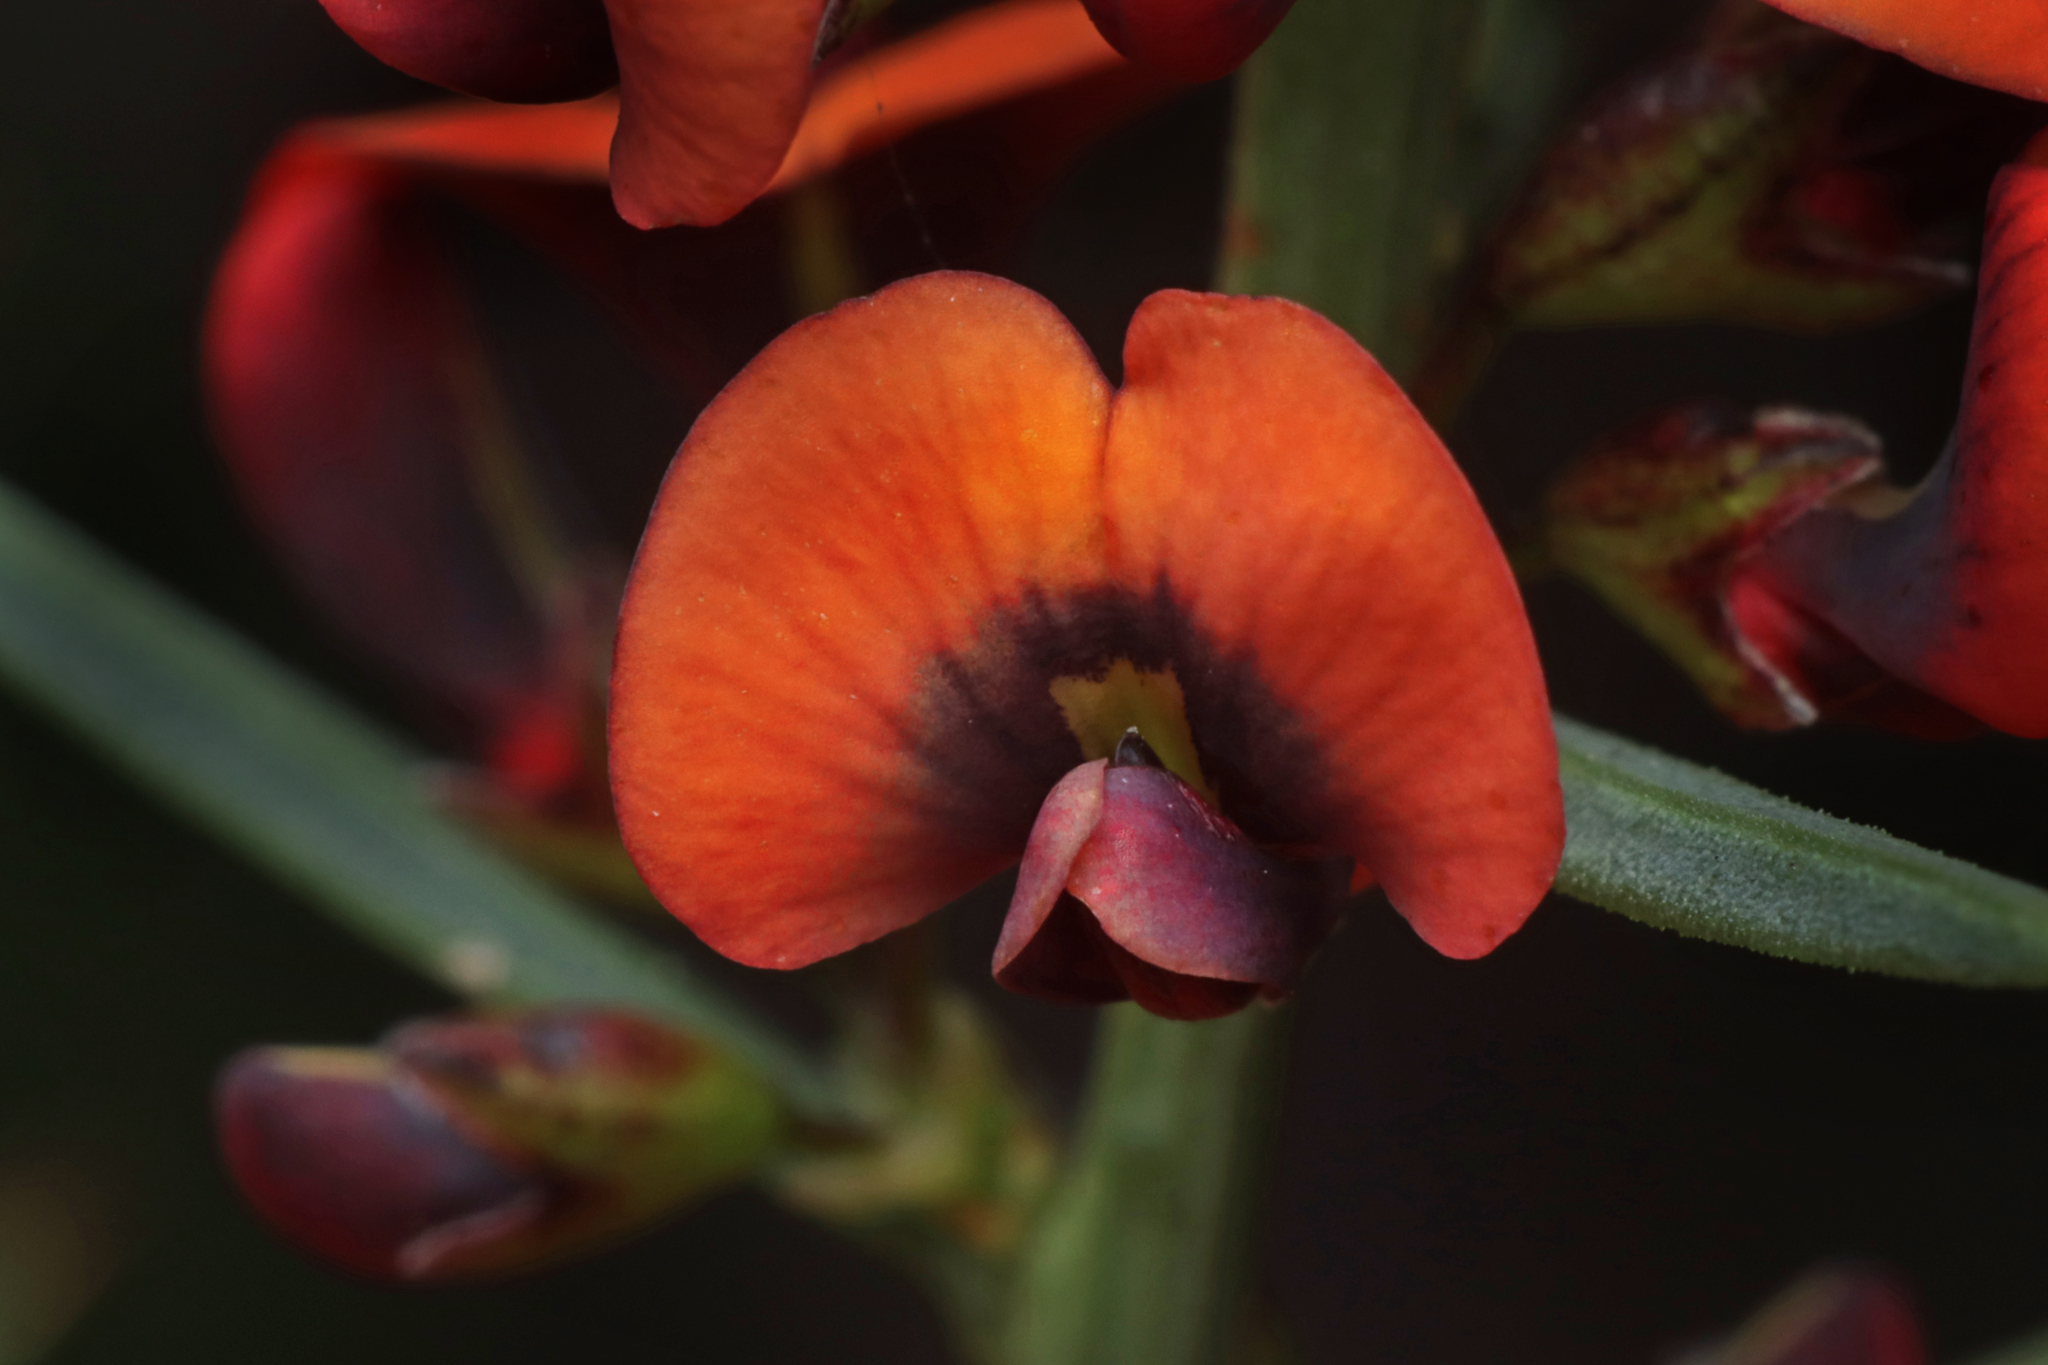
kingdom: Plantae
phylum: Tracheophyta
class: Magnoliopsida
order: Fabales
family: Fabaceae
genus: Daviesia
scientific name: Daviesia ulicifolia
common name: Gorse bitter-pea
